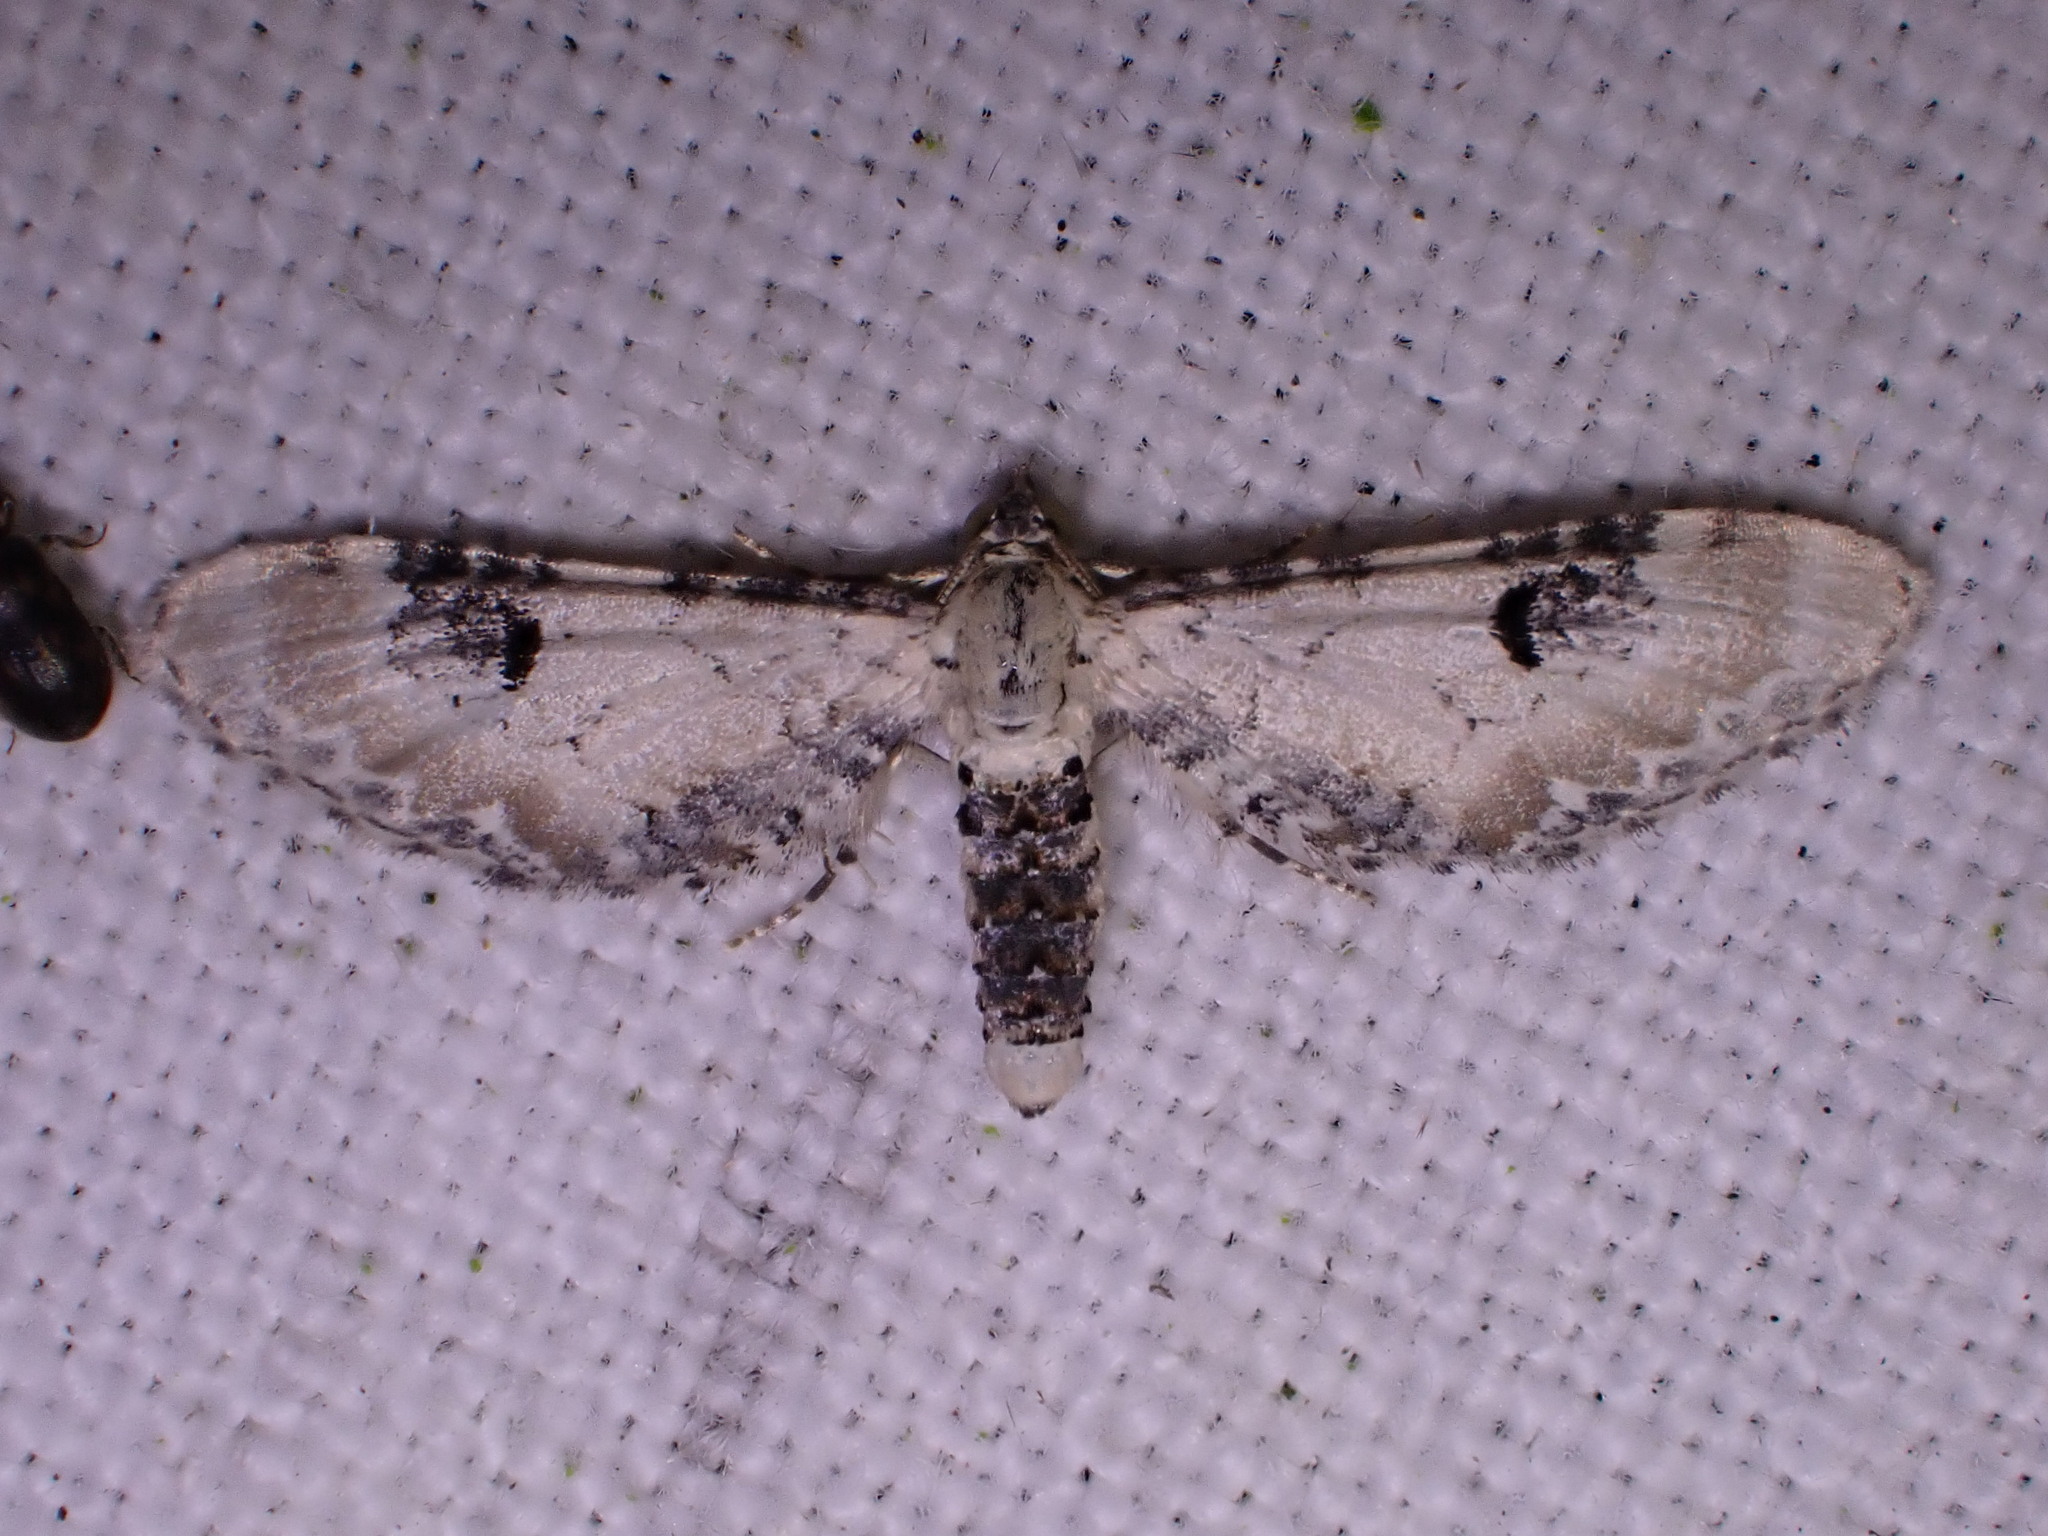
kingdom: Animalia
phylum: Arthropoda
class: Insecta
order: Lepidoptera
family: Geometridae
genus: Eupithecia
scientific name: Eupithecia centaureata
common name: Lime-speck pug
